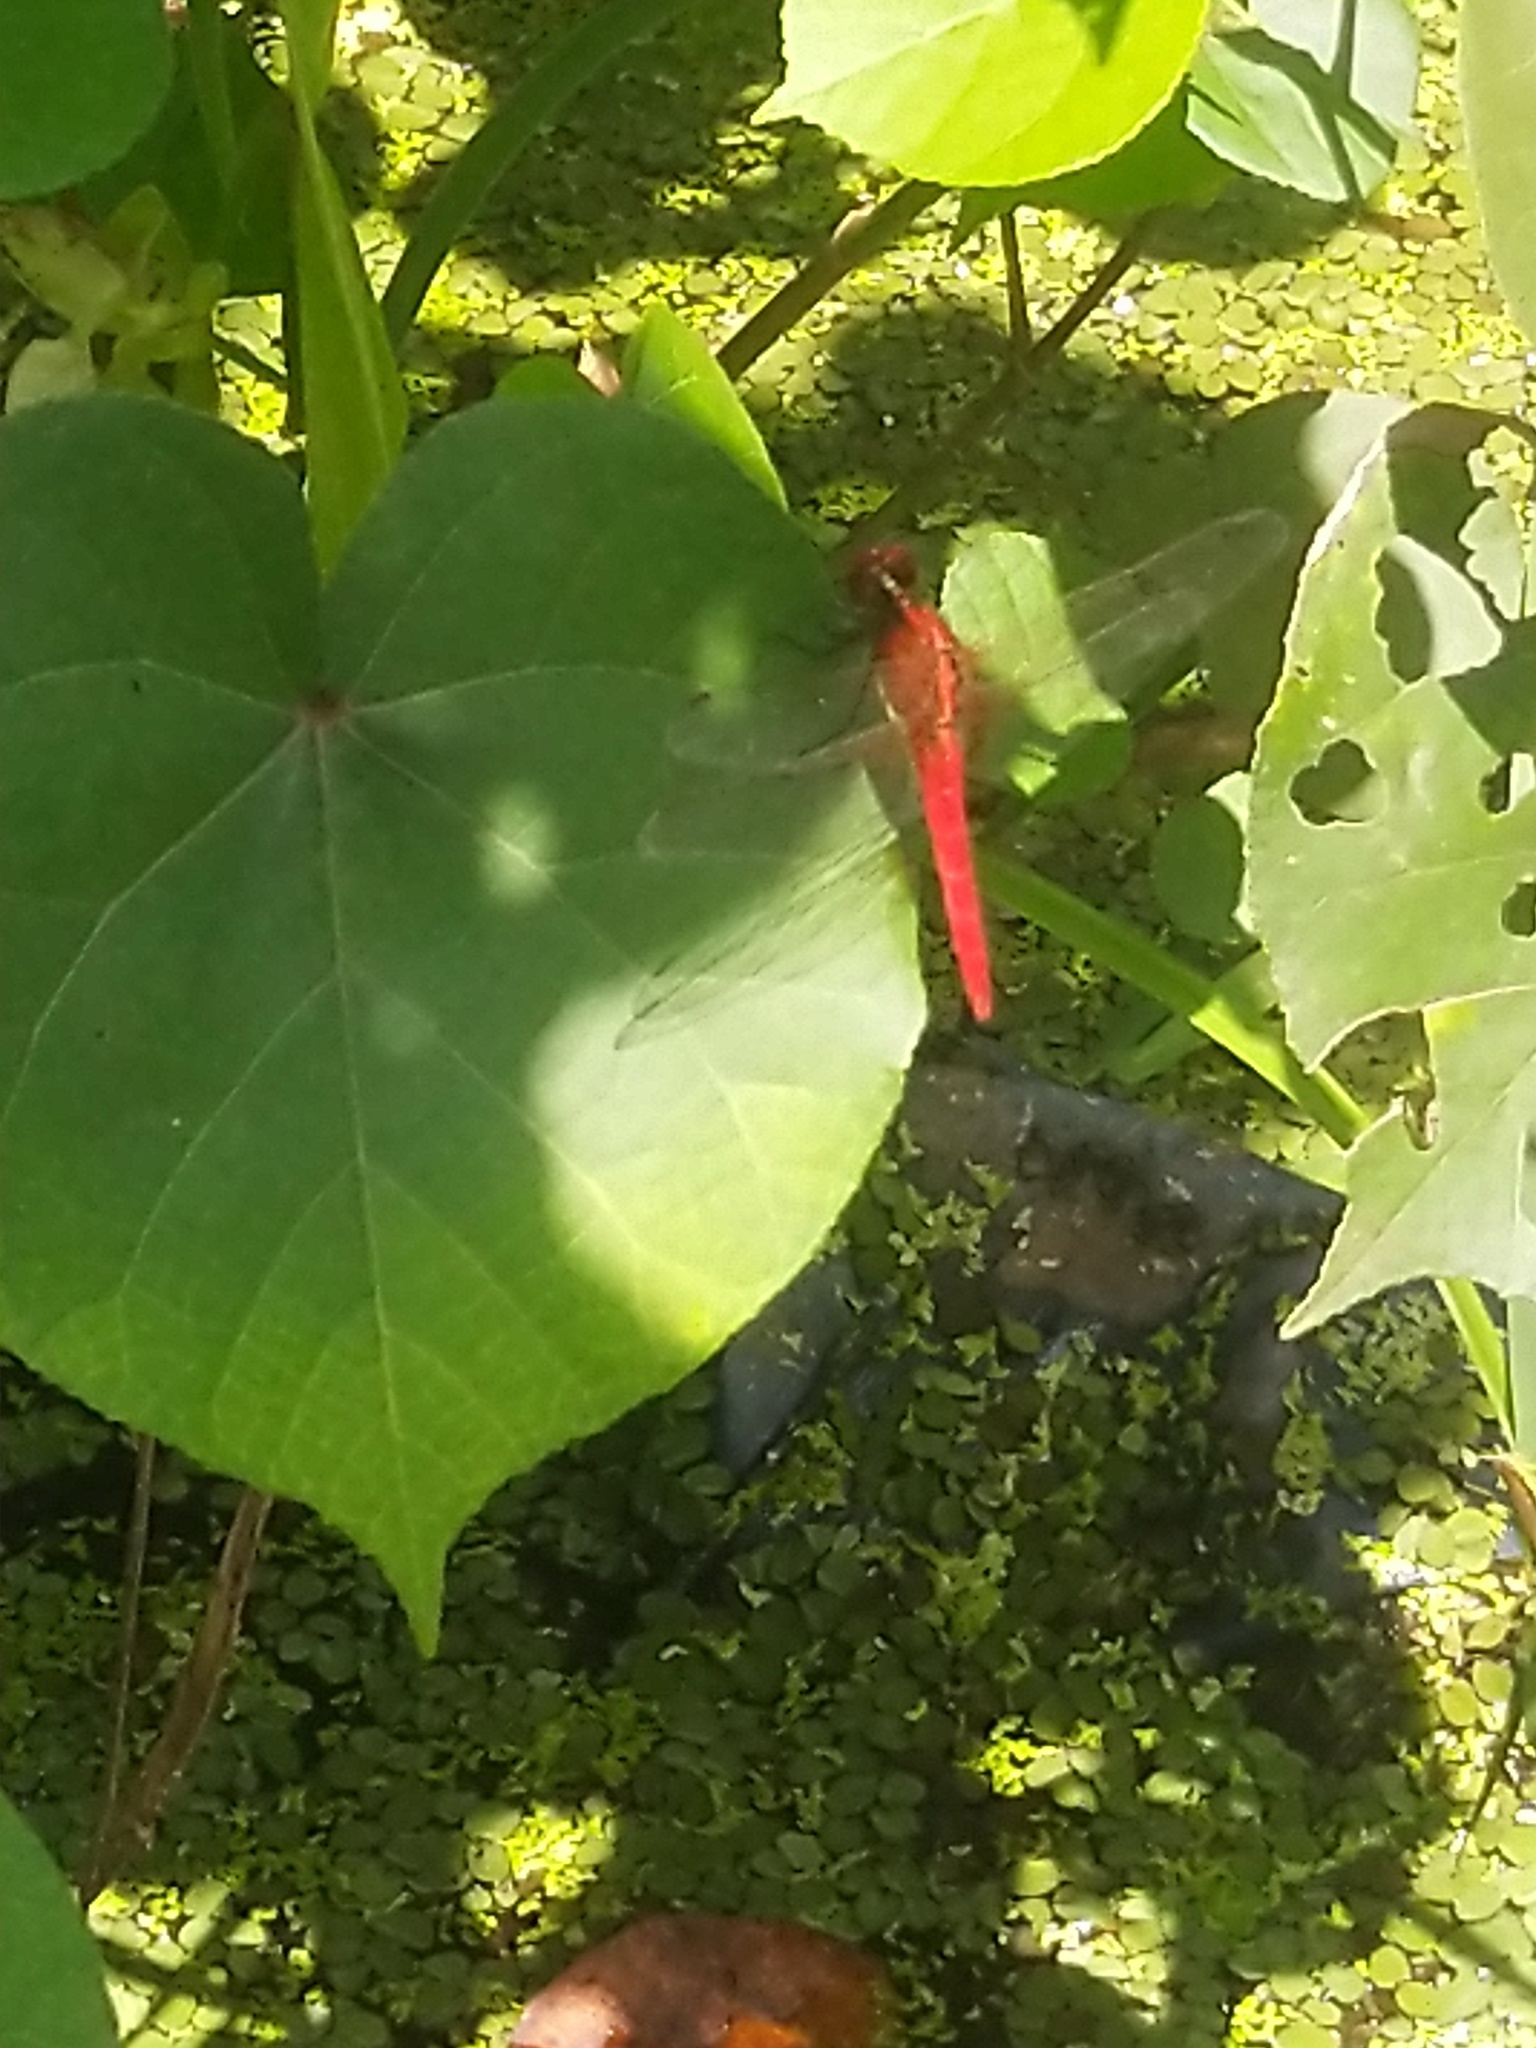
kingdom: Animalia
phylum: Arthropoda
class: Insecta
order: Odonata
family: Libellulidae
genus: Rhodothemis
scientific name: Rhodothemis rufa
